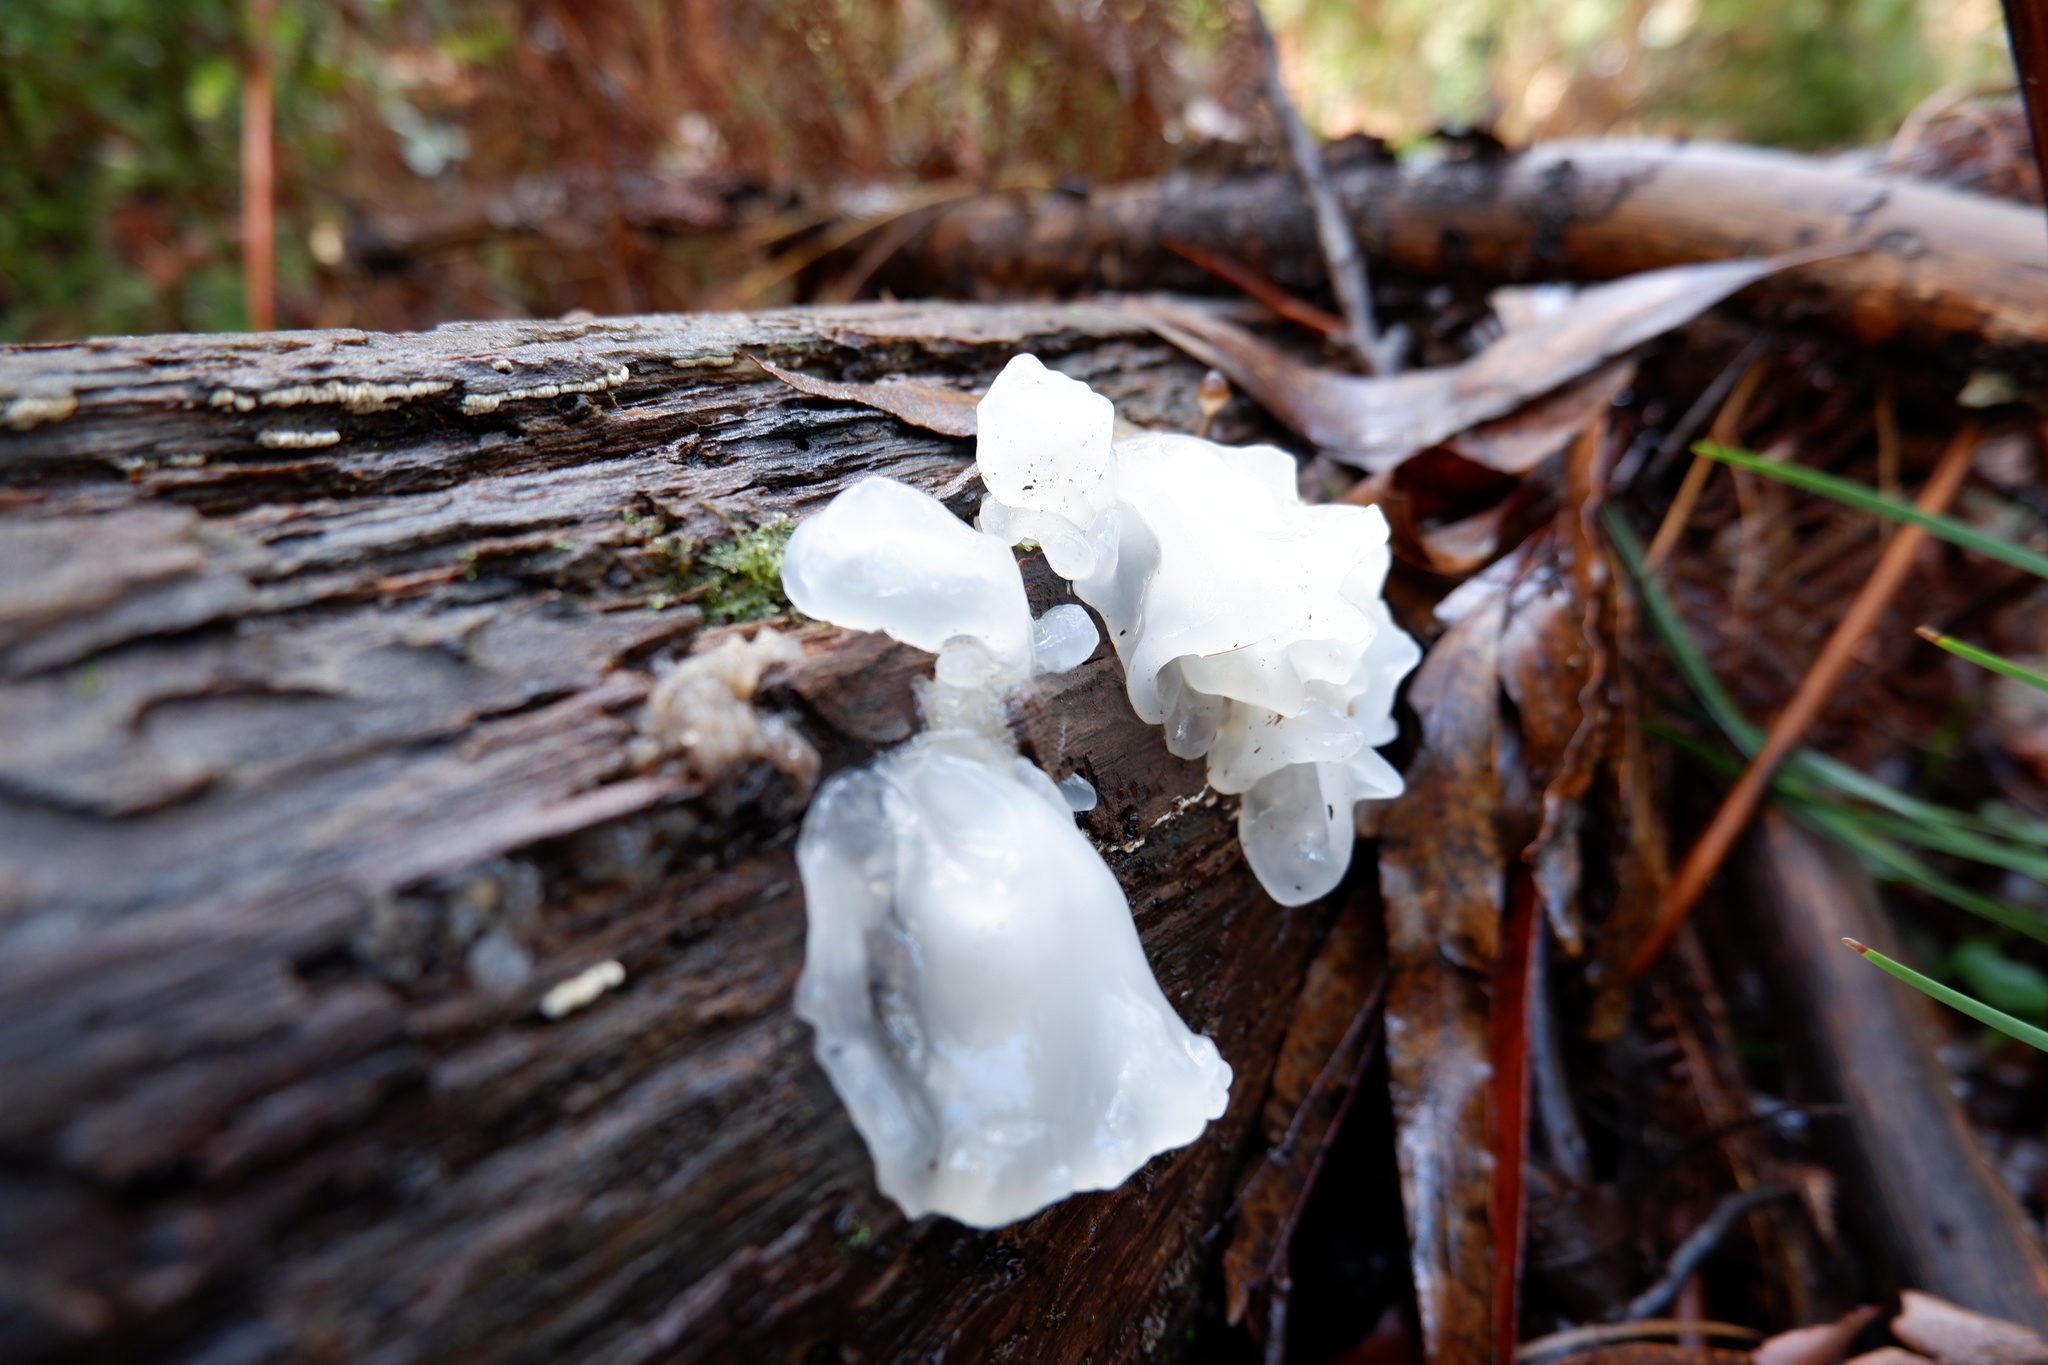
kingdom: Fungi
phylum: Basidiomycota
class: Tremellomycetes
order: Tremellales
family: Tremellaceae
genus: Tremella
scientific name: Tremella fuciformis
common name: Snow fungus
